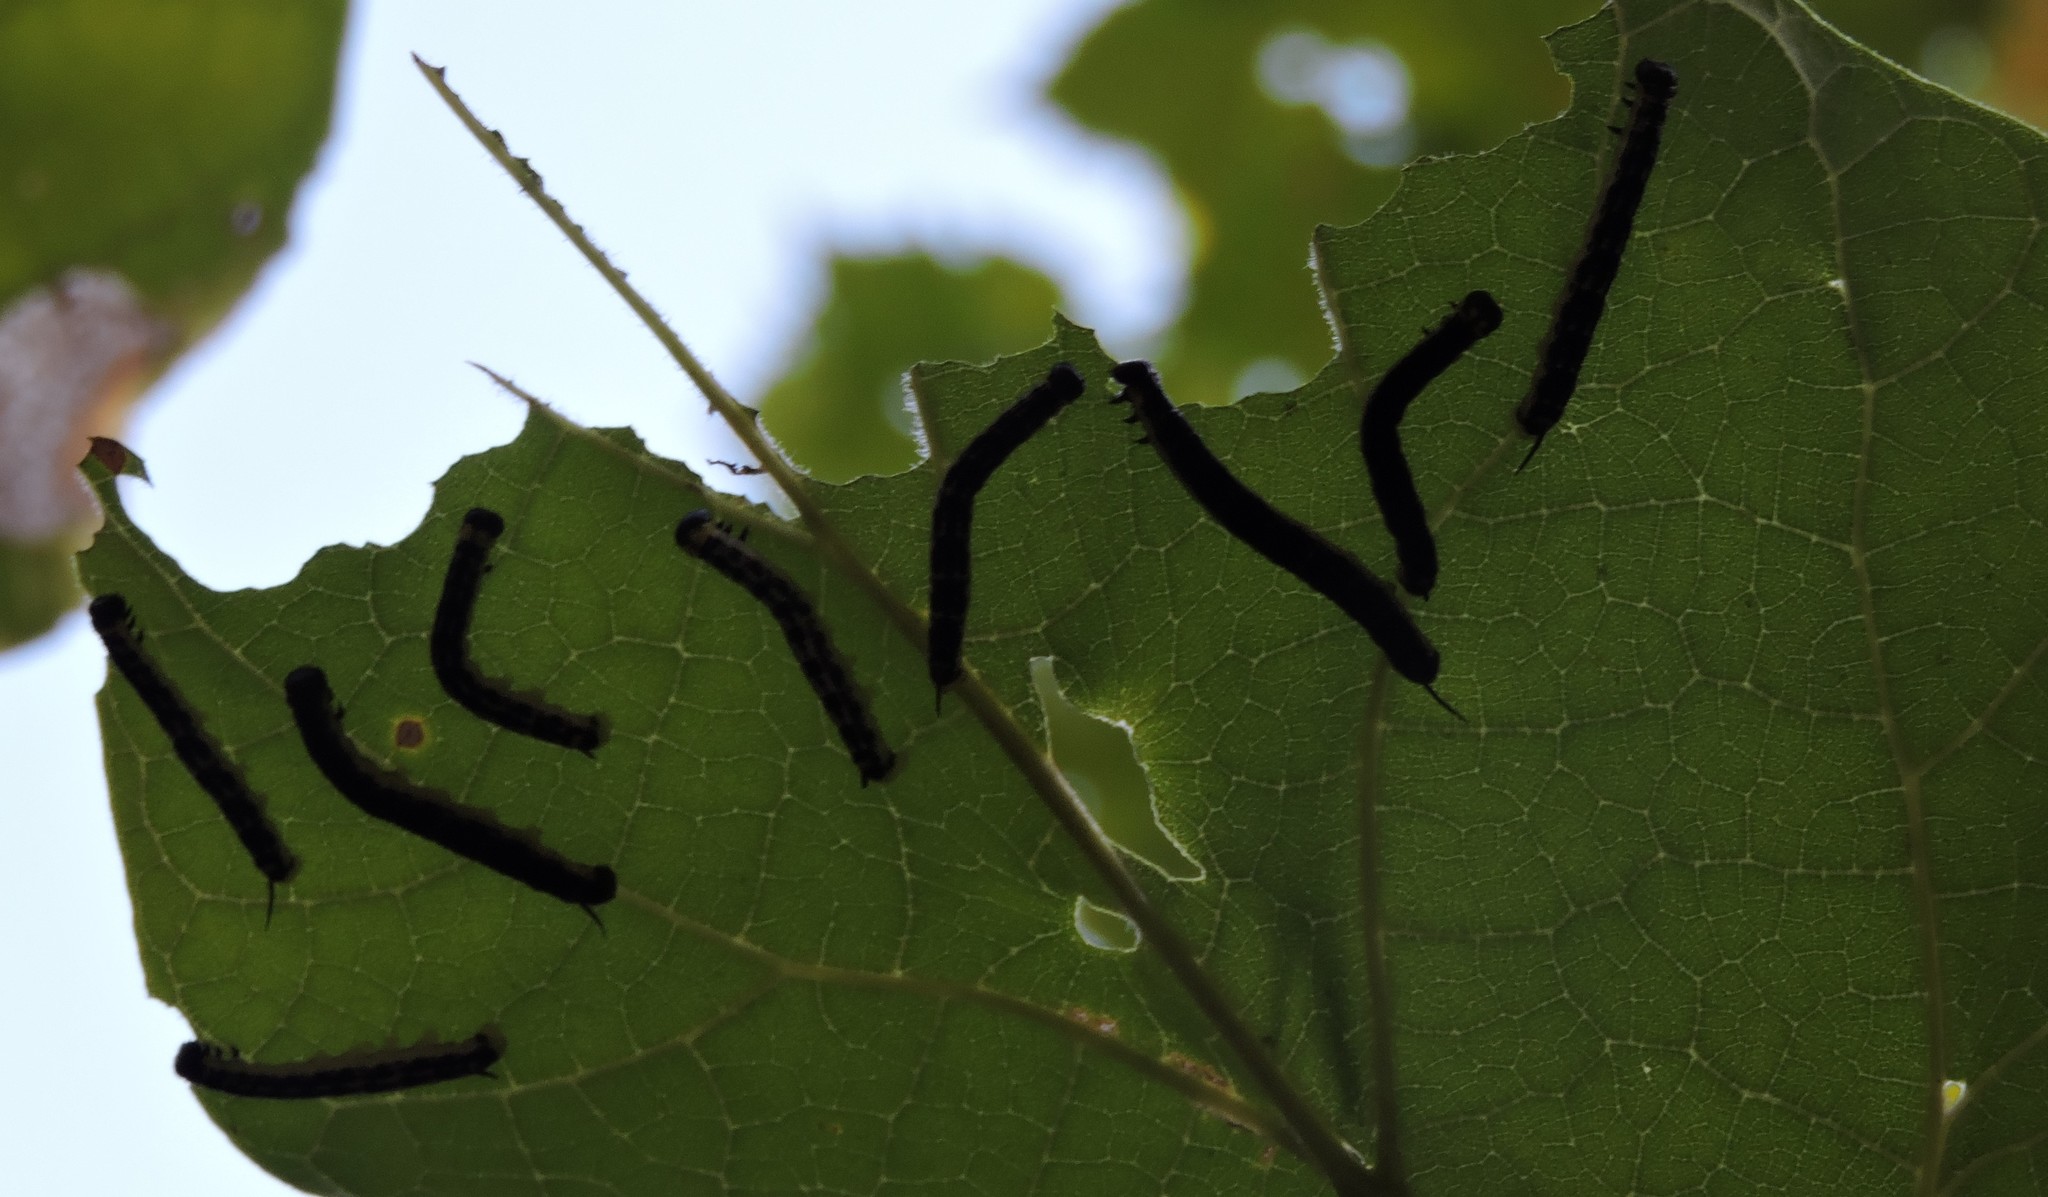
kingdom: Animalia
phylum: Arthropoda
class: Insecta
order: Lepidoptera
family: Sphingidae
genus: Ceratomia
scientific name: Ceratomia catalpae
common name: Catalpa hornworm
